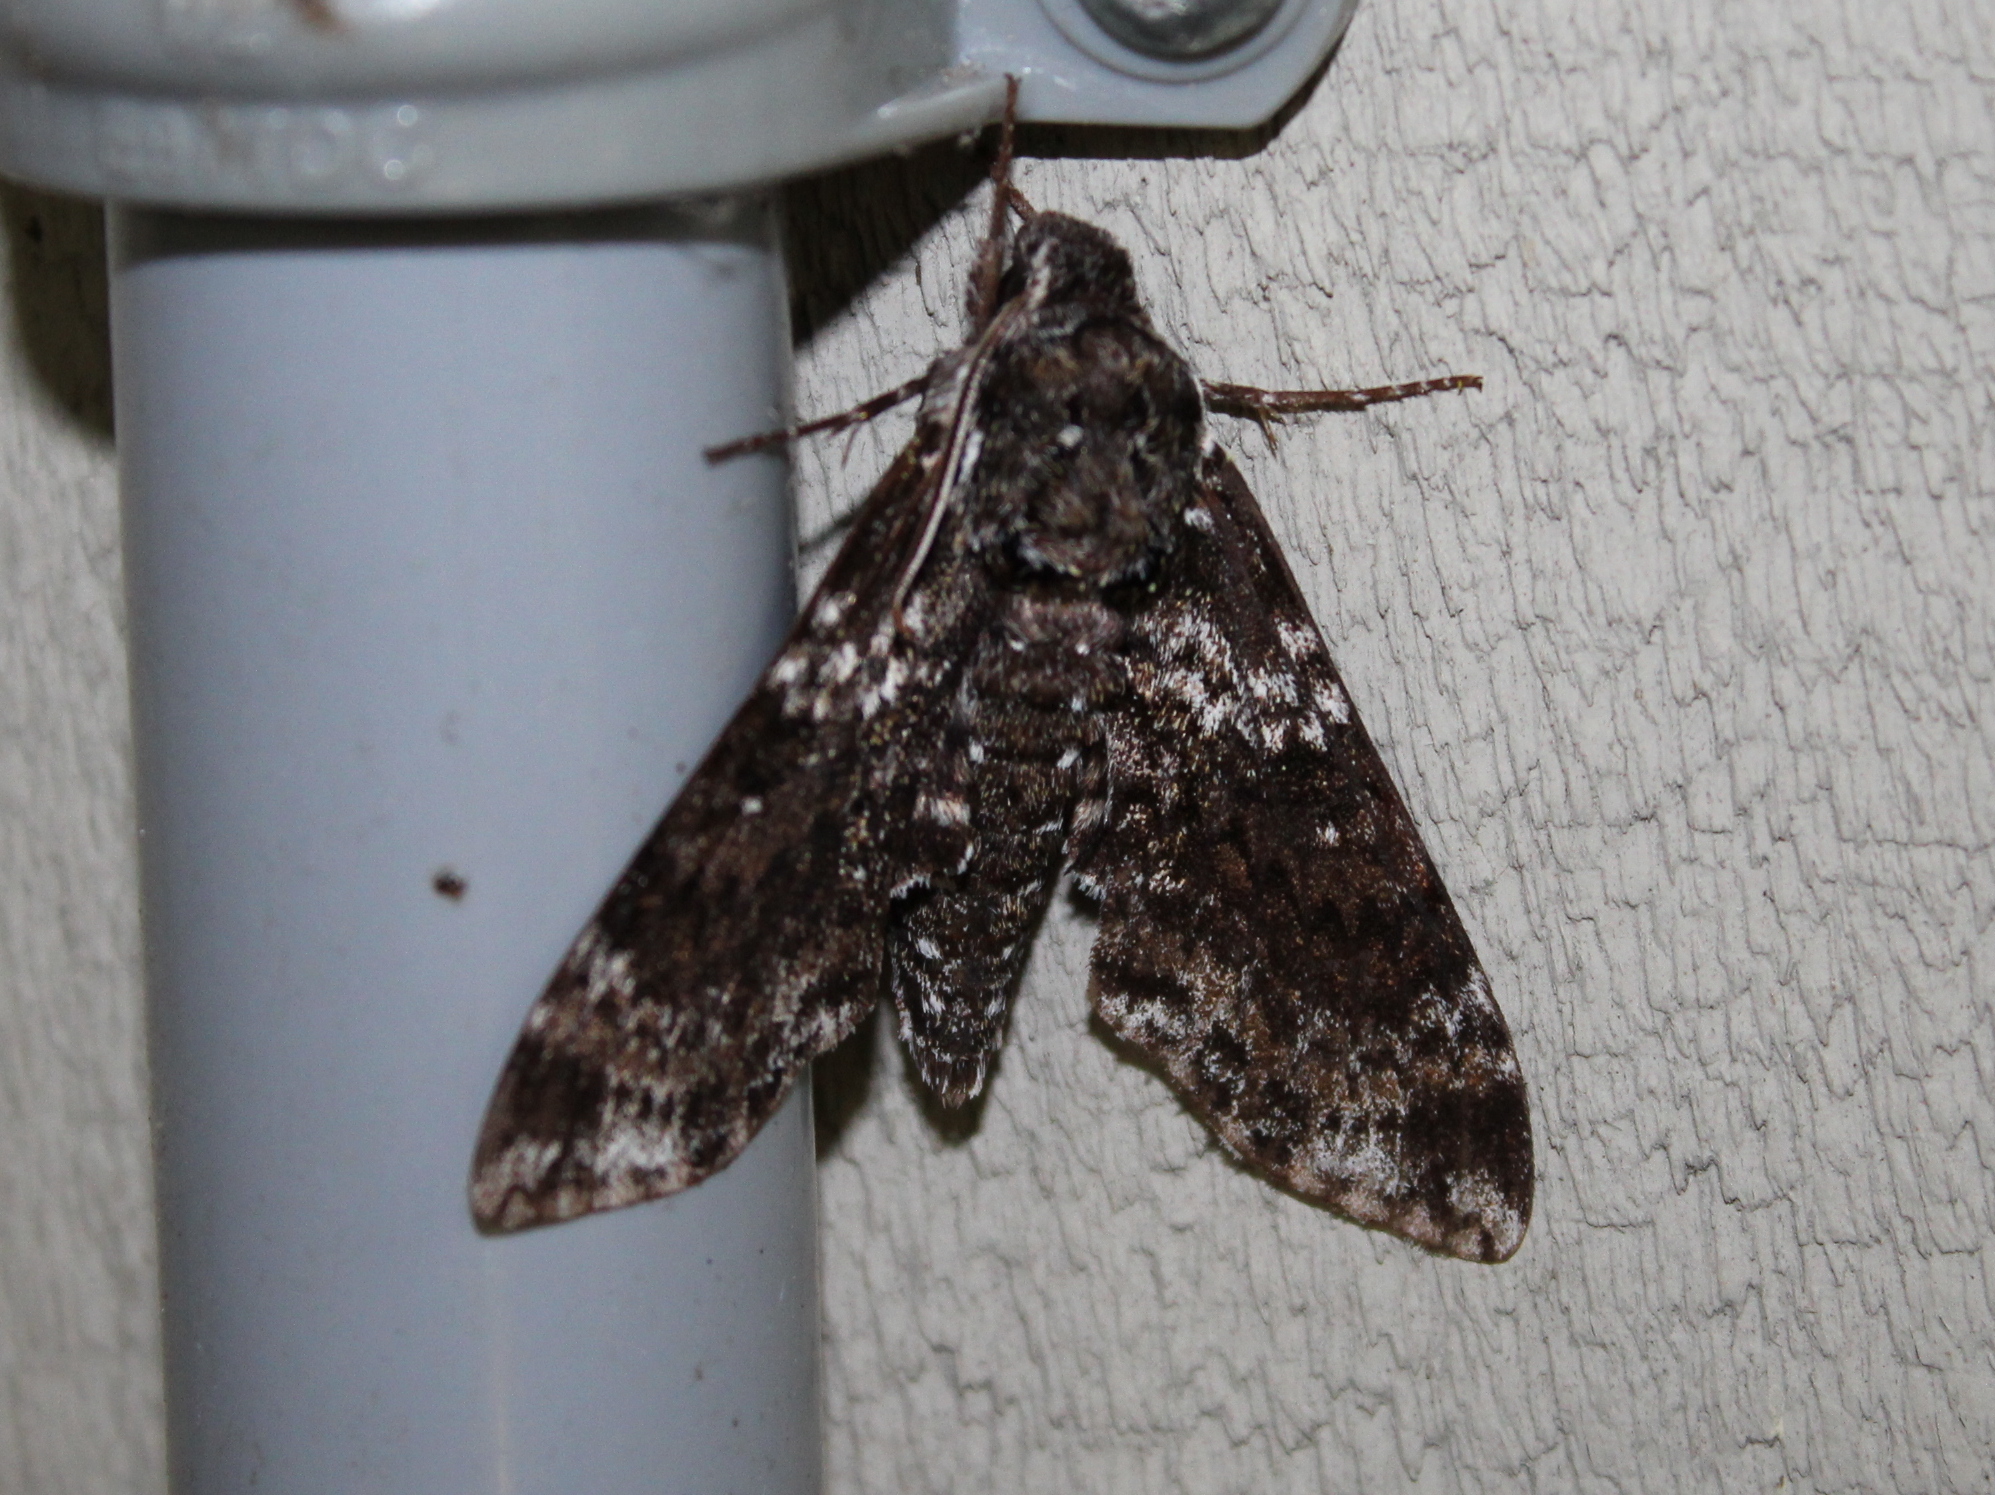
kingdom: Animalia
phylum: Arthropoda
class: Insecta
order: Lepidoptera
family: Sphingidae
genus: Dolba
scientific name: Dolba hyloeus
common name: Pawpaw sphinx
